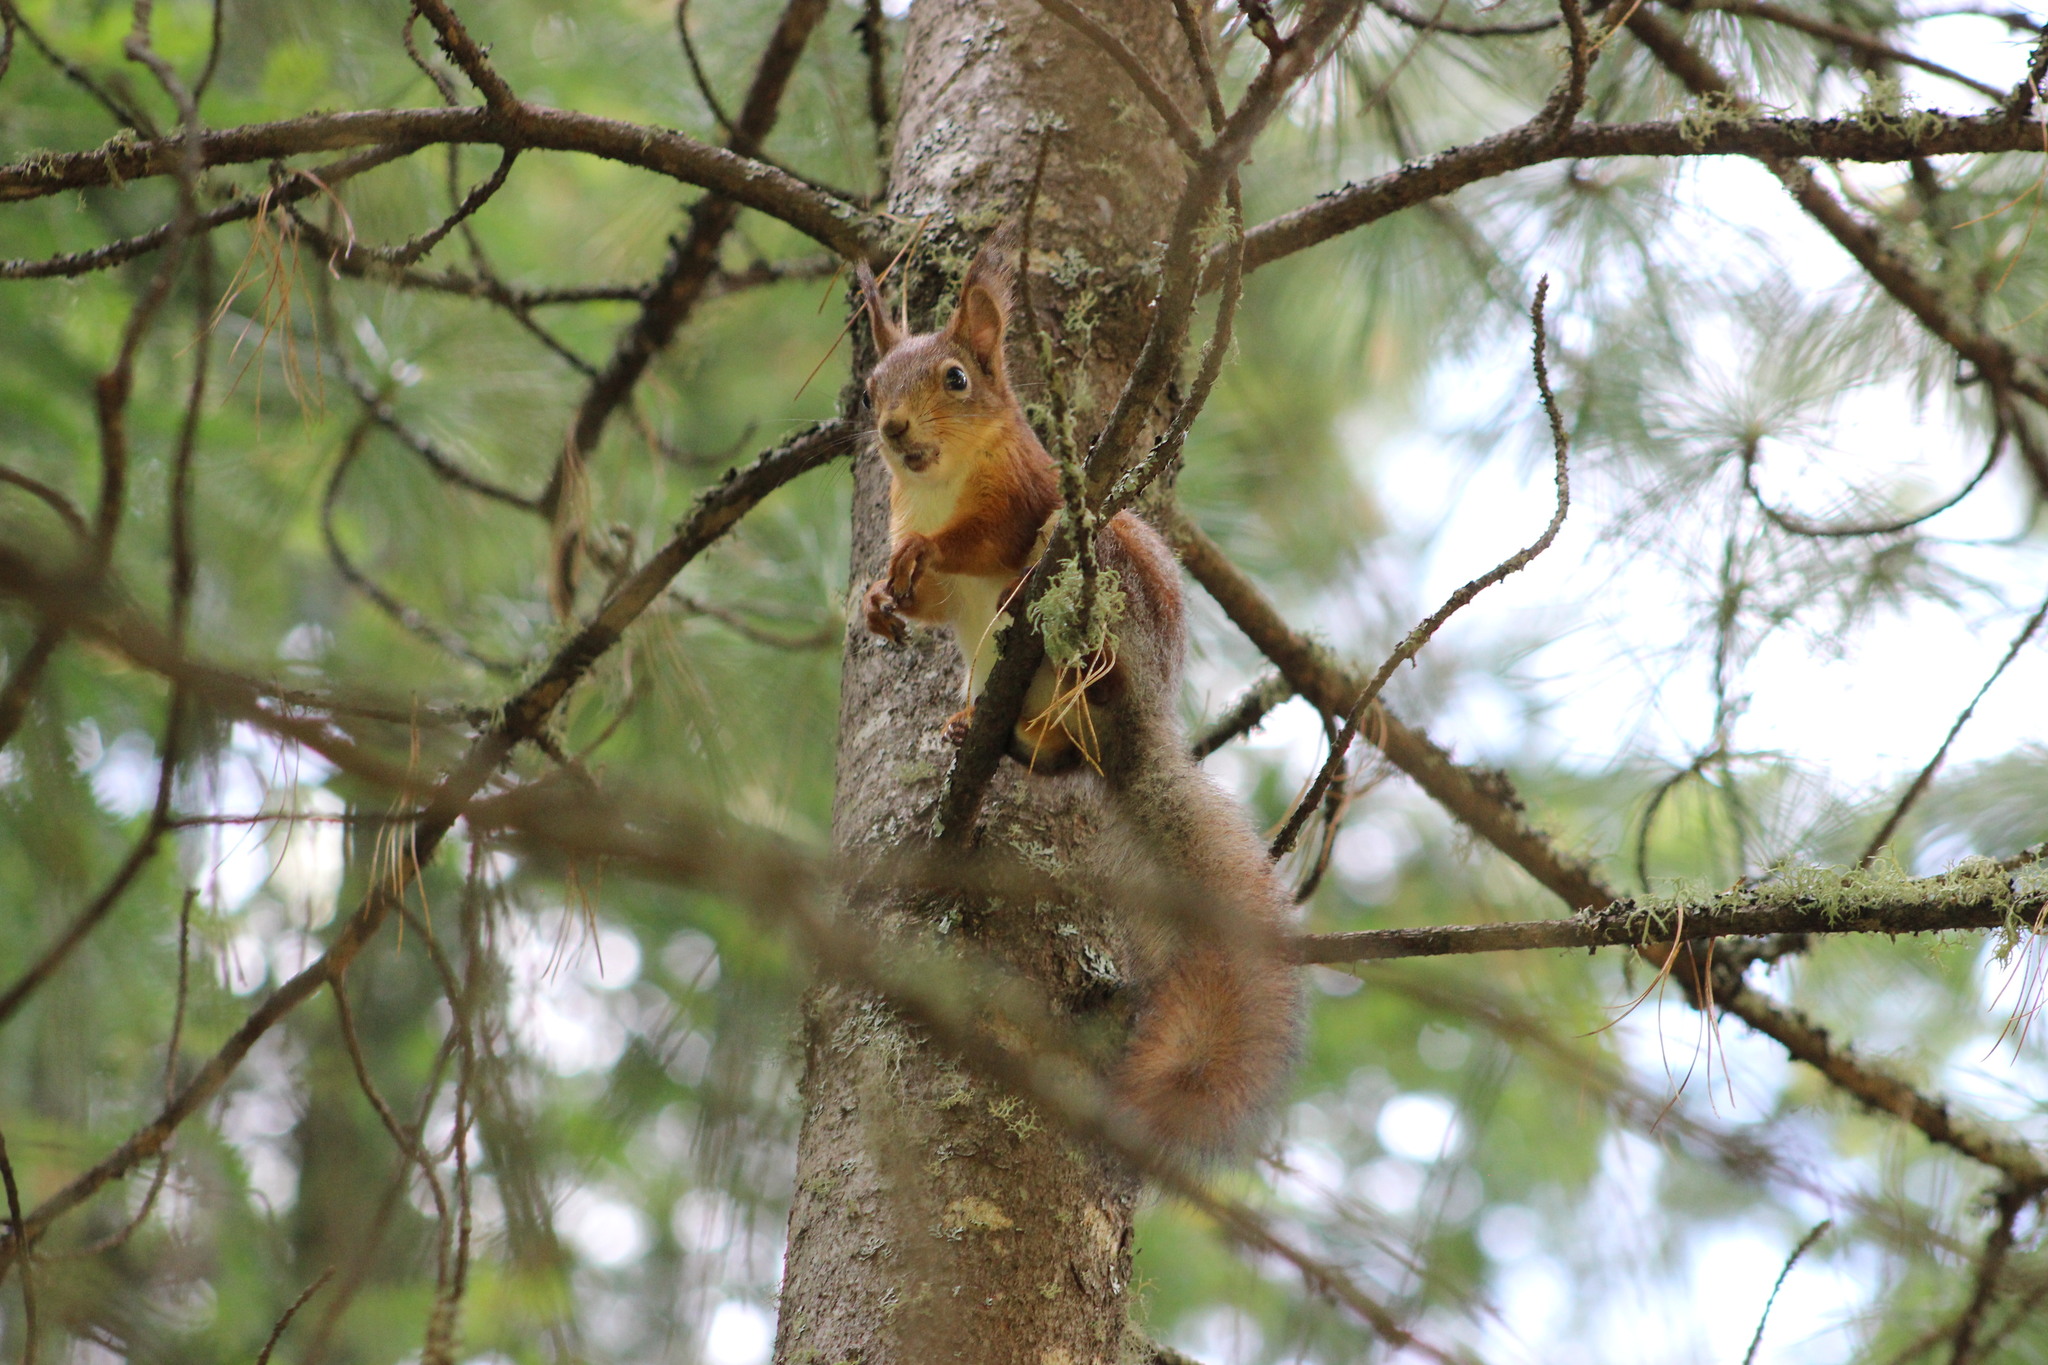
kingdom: Animalia
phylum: Chordata
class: Mammalia
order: Rodentia
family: Sciuridae
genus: Sciurus
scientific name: Sciurus vulgaris
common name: Eurasian red squirrel
